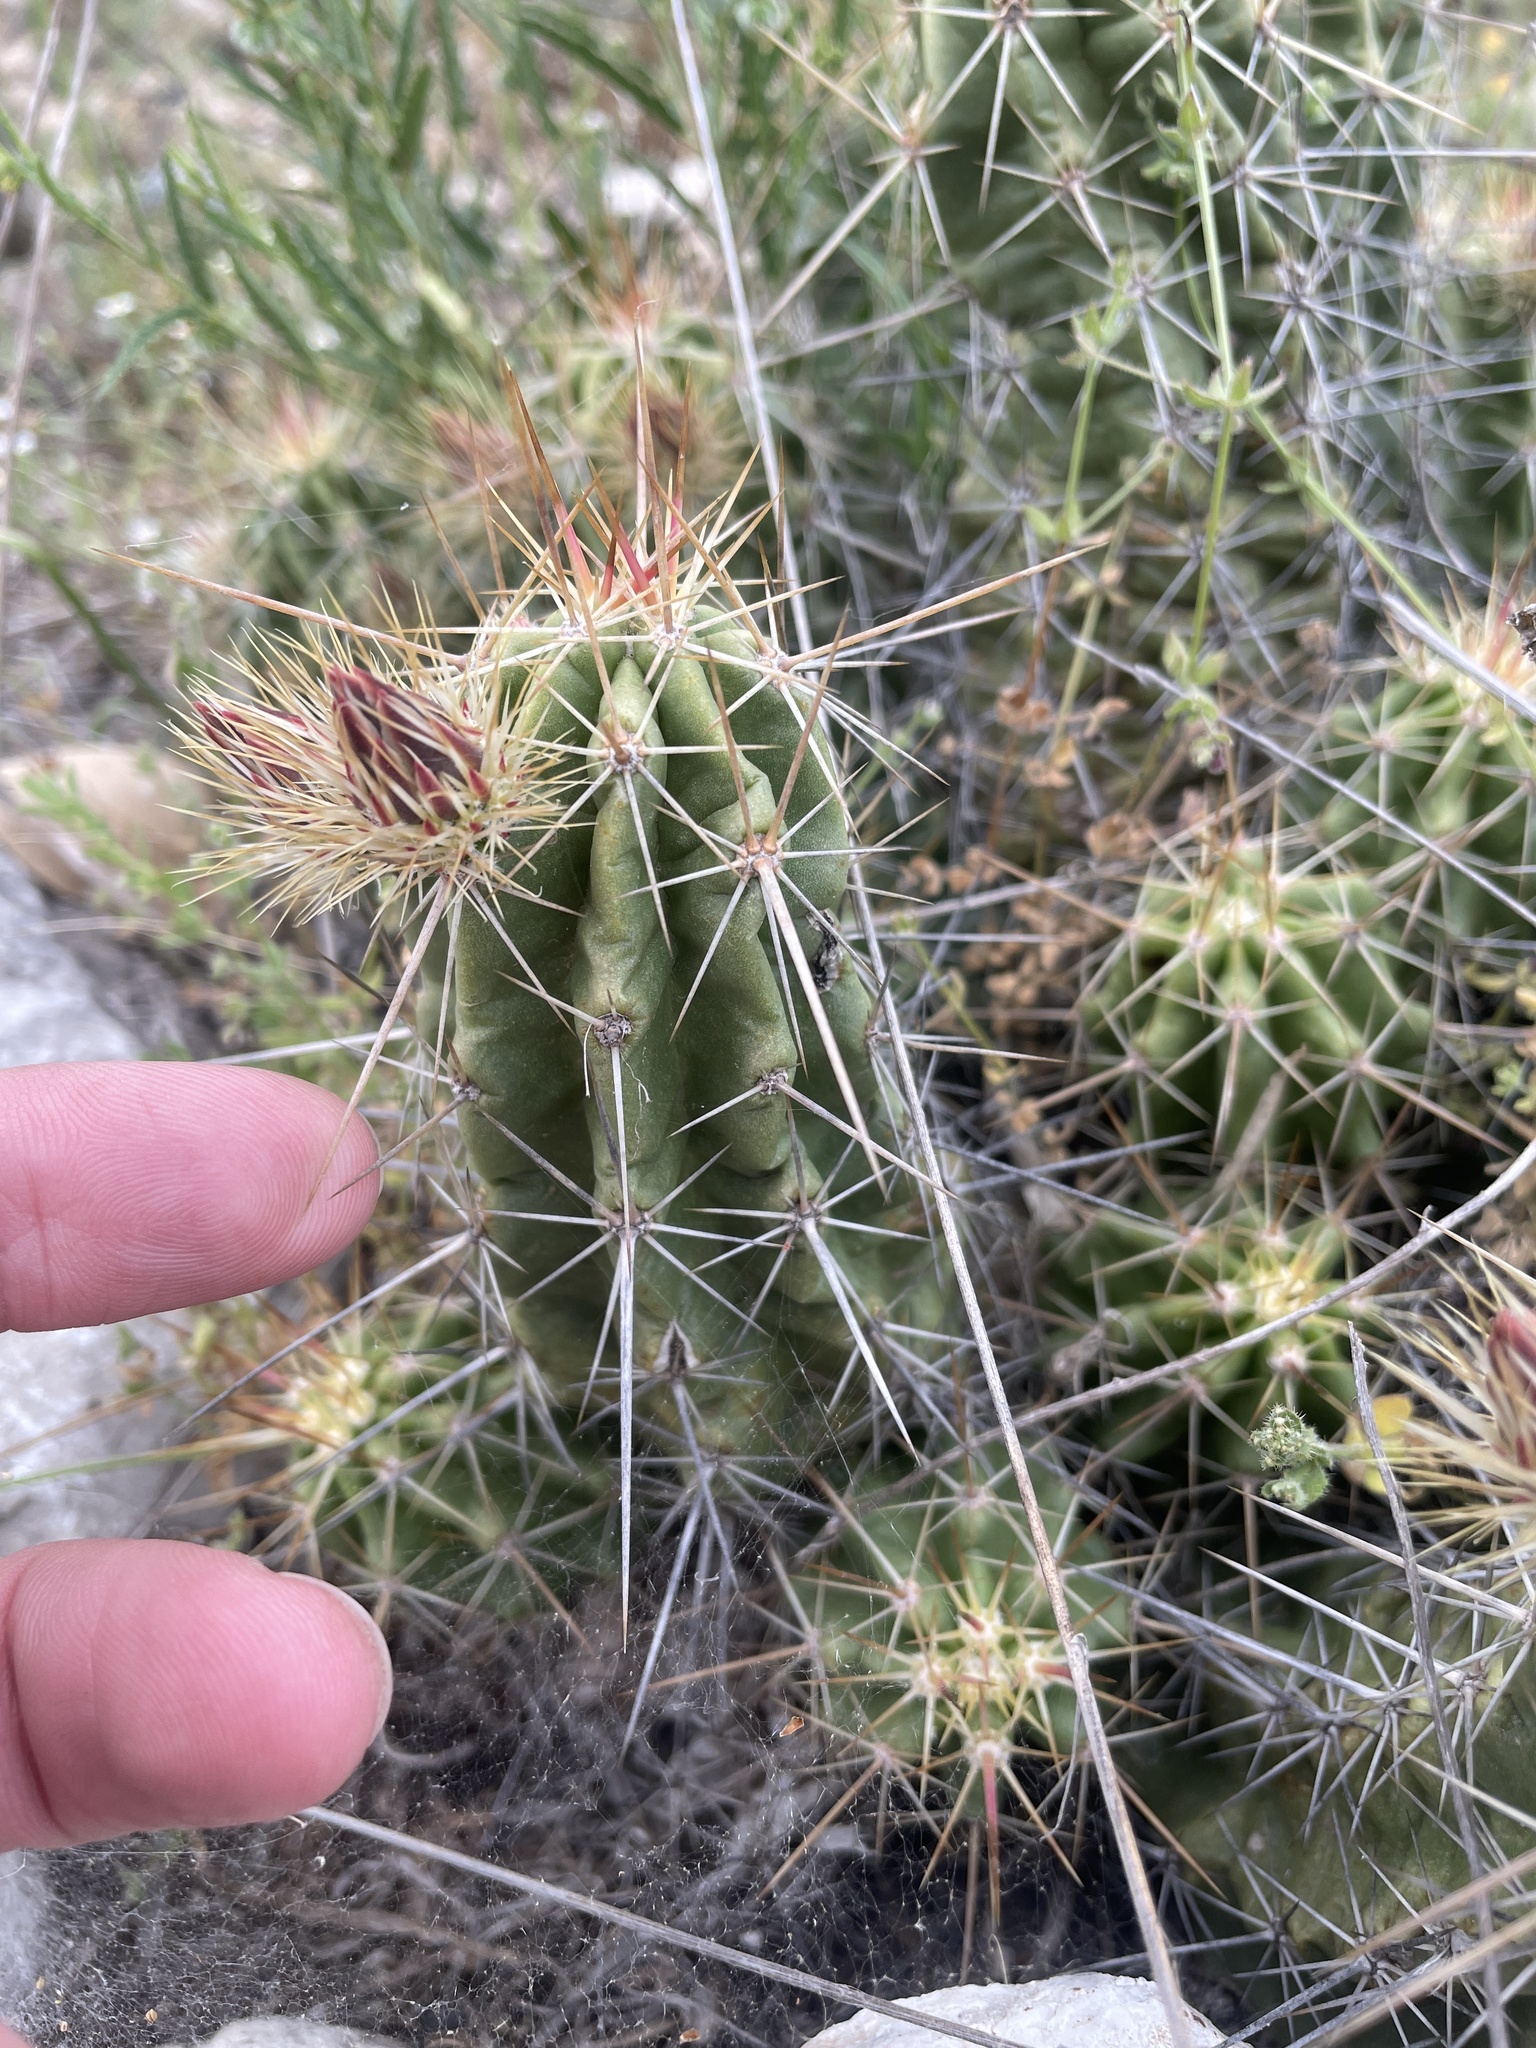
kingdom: Plantae
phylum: Tracheophyta
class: Magnoliopsida
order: Caryophyllales
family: Cactaceae
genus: Echinocereus
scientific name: Echinocereus enneacanthus
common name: Pitaya
